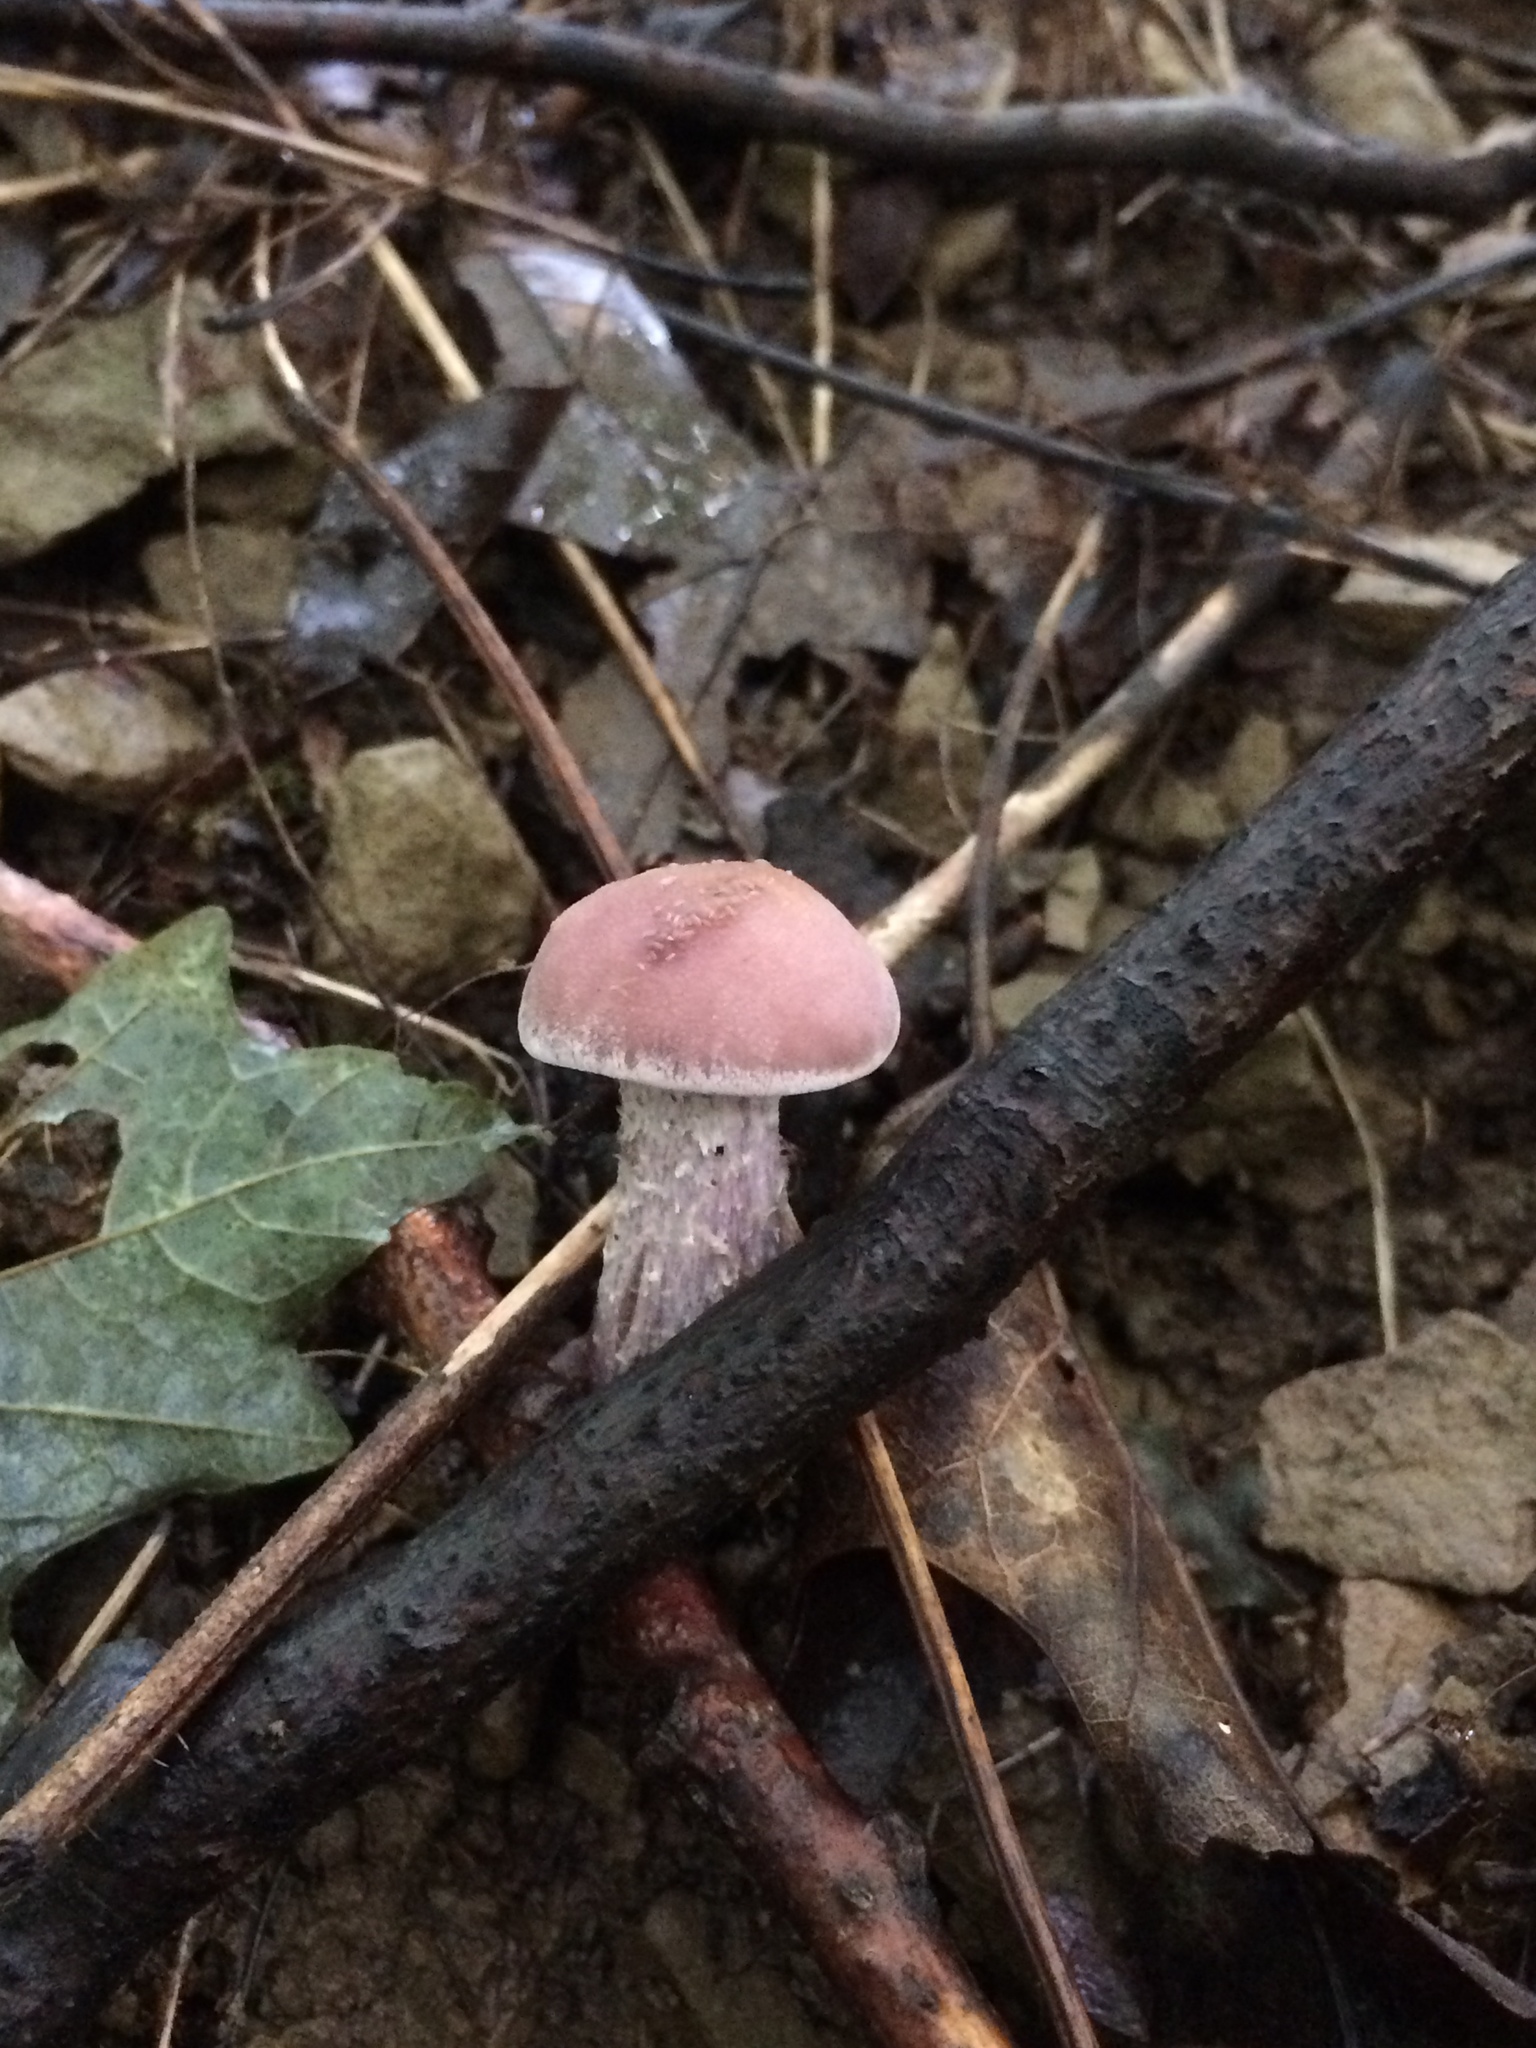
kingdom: Fungi
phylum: Basidiomycota
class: Agaricomycetes
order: Agaricales
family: Hydnangiaceae
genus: Laccaria
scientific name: Laccaria ochropurpurea
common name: Purple laccaria
